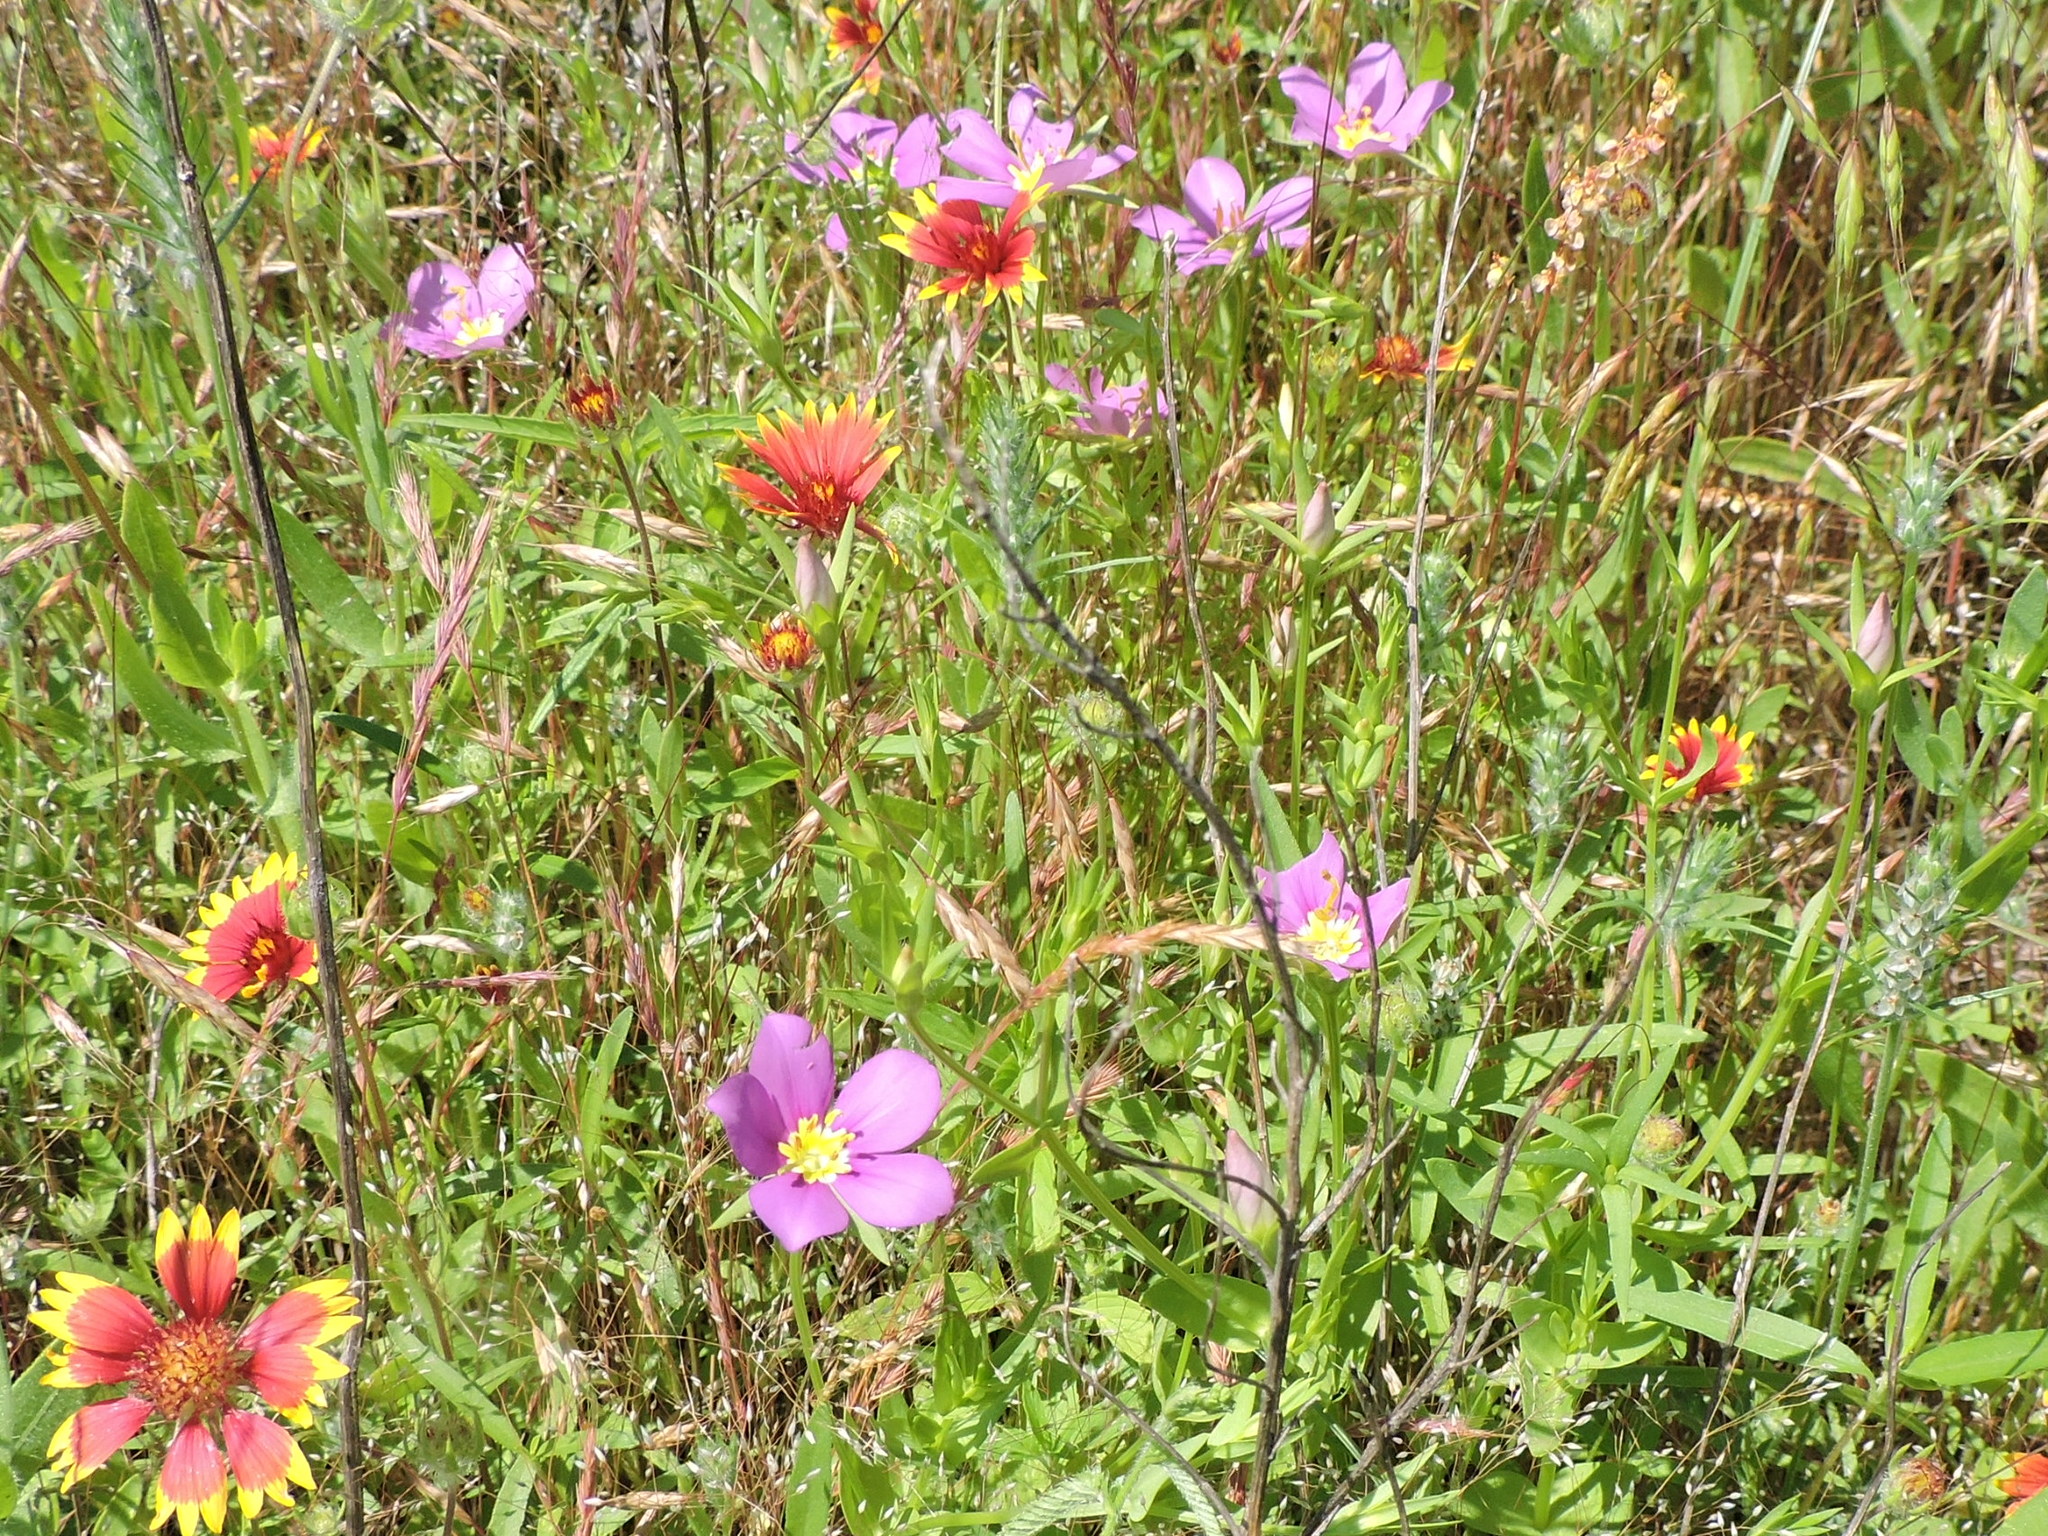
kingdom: Plantae
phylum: Tracheophyta
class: Magnoliopsida
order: Gentianales
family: Gentianaceae
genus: Sabatia
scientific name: Sabatia campestris
